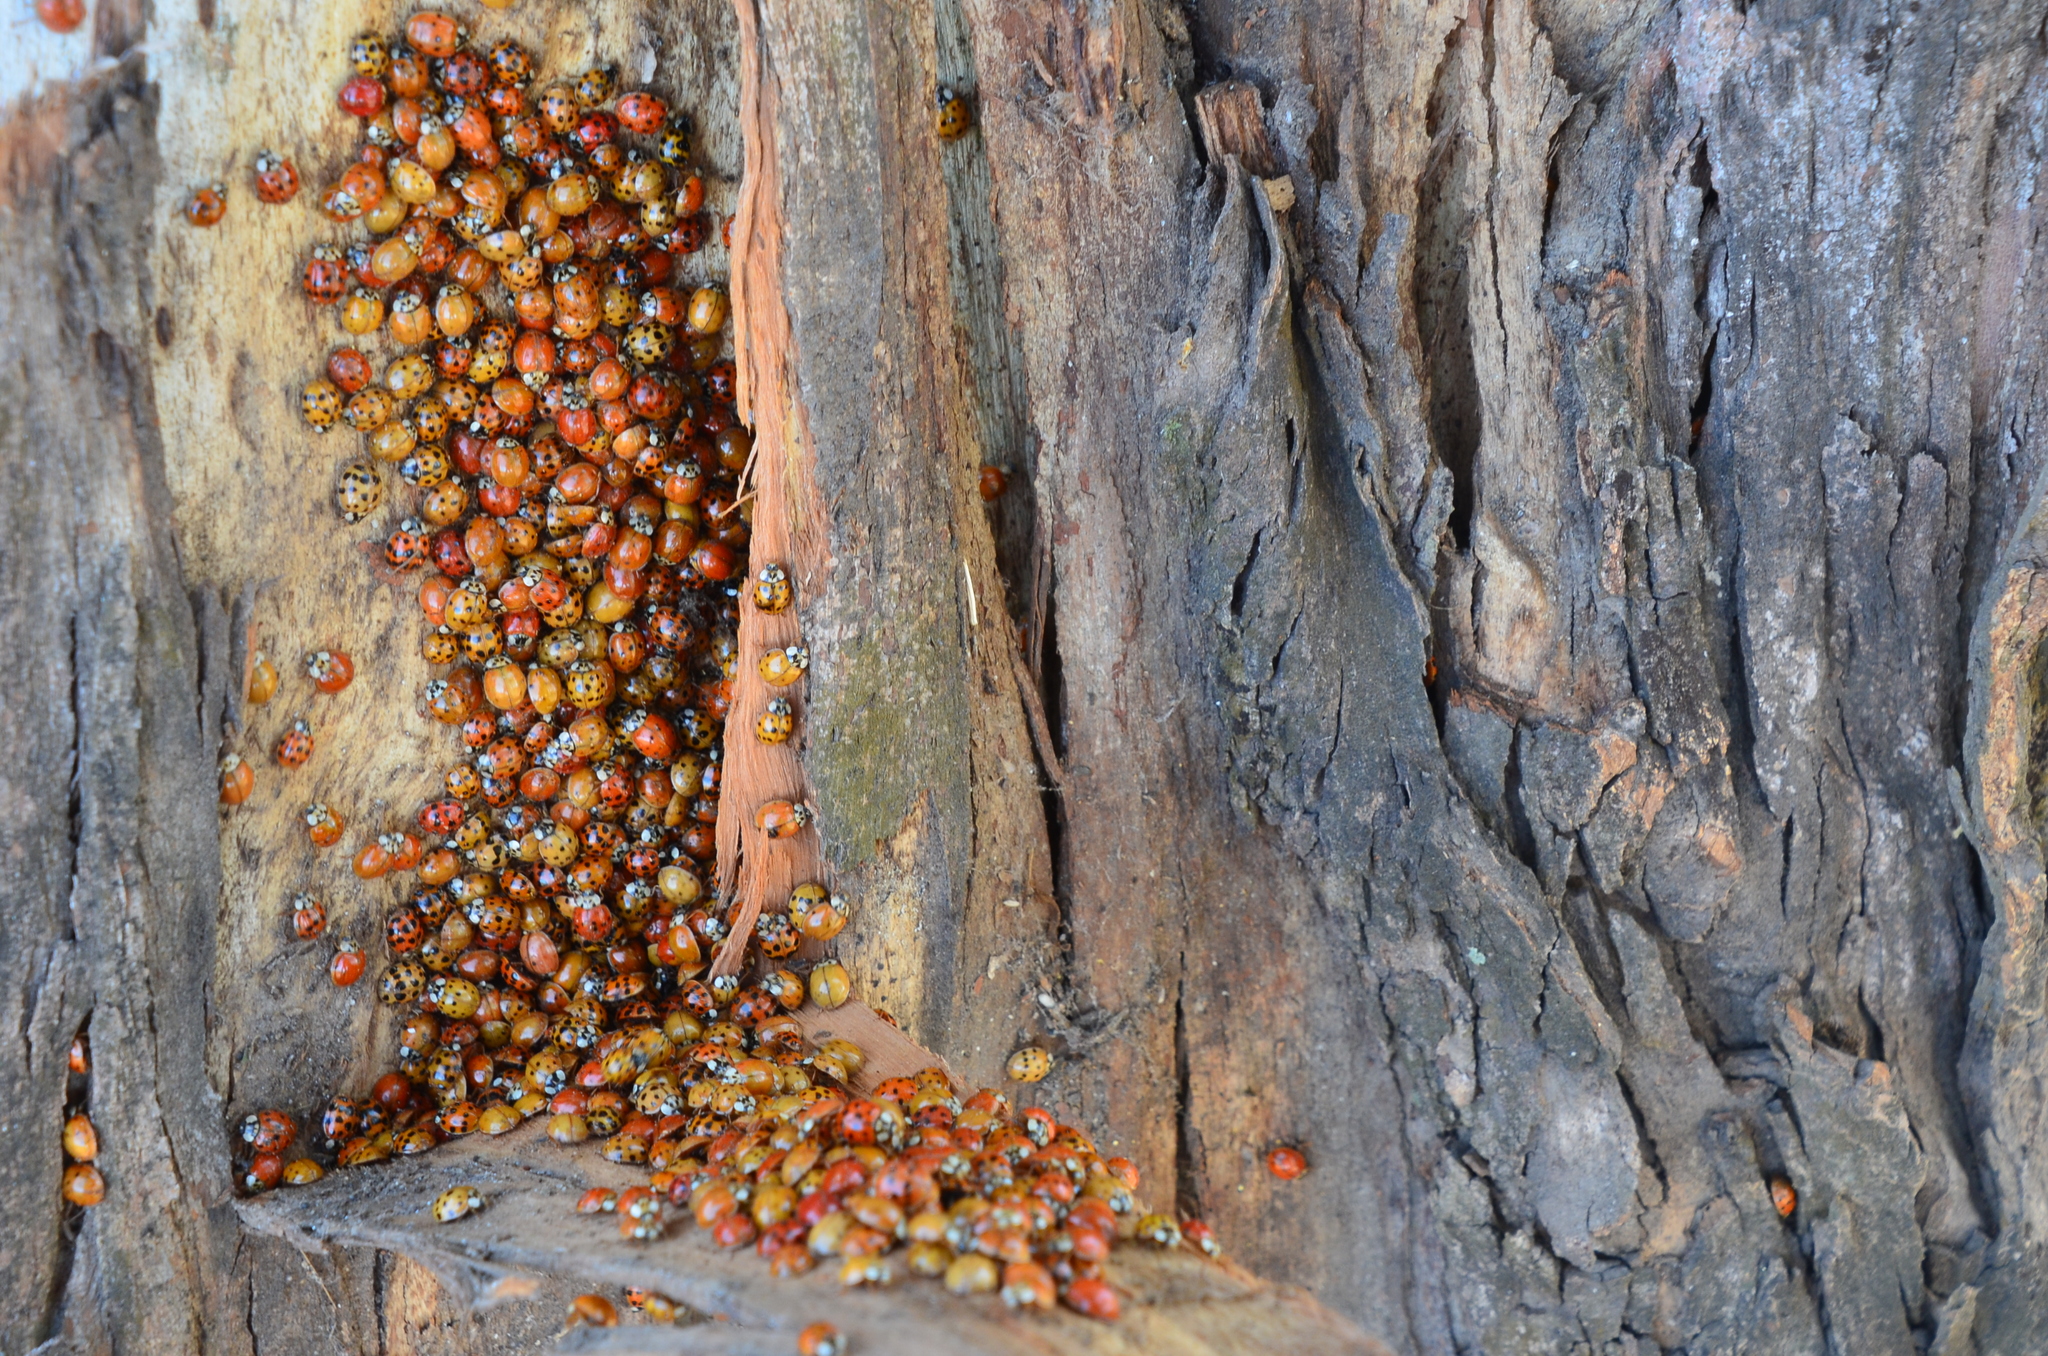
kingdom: Animalia
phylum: Arthropoda
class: Insecta
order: Coleoptera
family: Coccinellidae
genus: Harmonia
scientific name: Harmonia axyridis
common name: Harlequin ladybird
